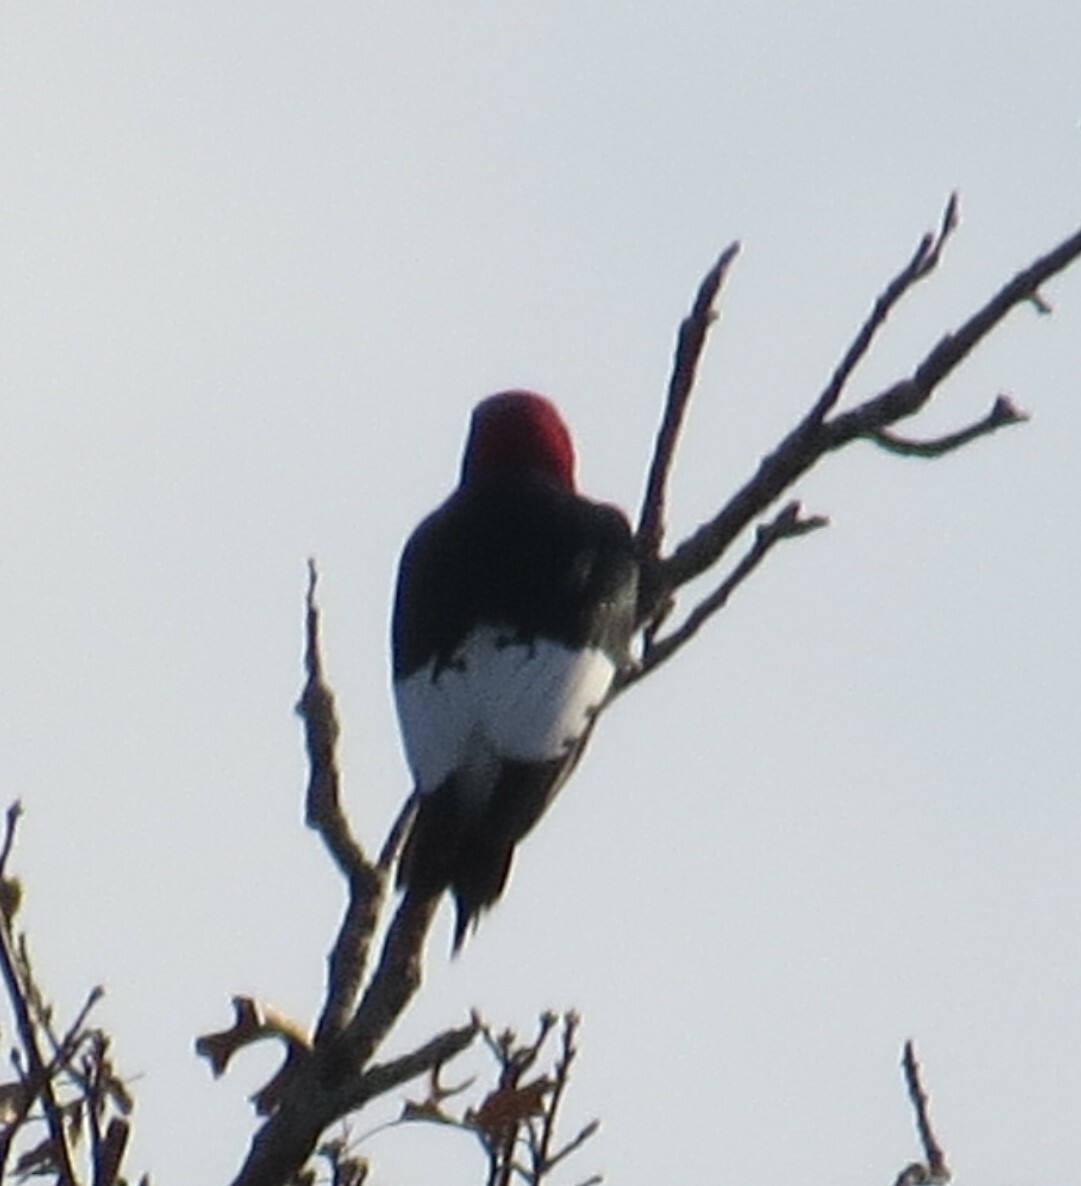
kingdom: Animalia
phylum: Chordata
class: Aves
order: Piciformes
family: Picidae
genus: Melanerpes
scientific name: Melanerpes erythrocephalus
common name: Red-headed woodpecker
